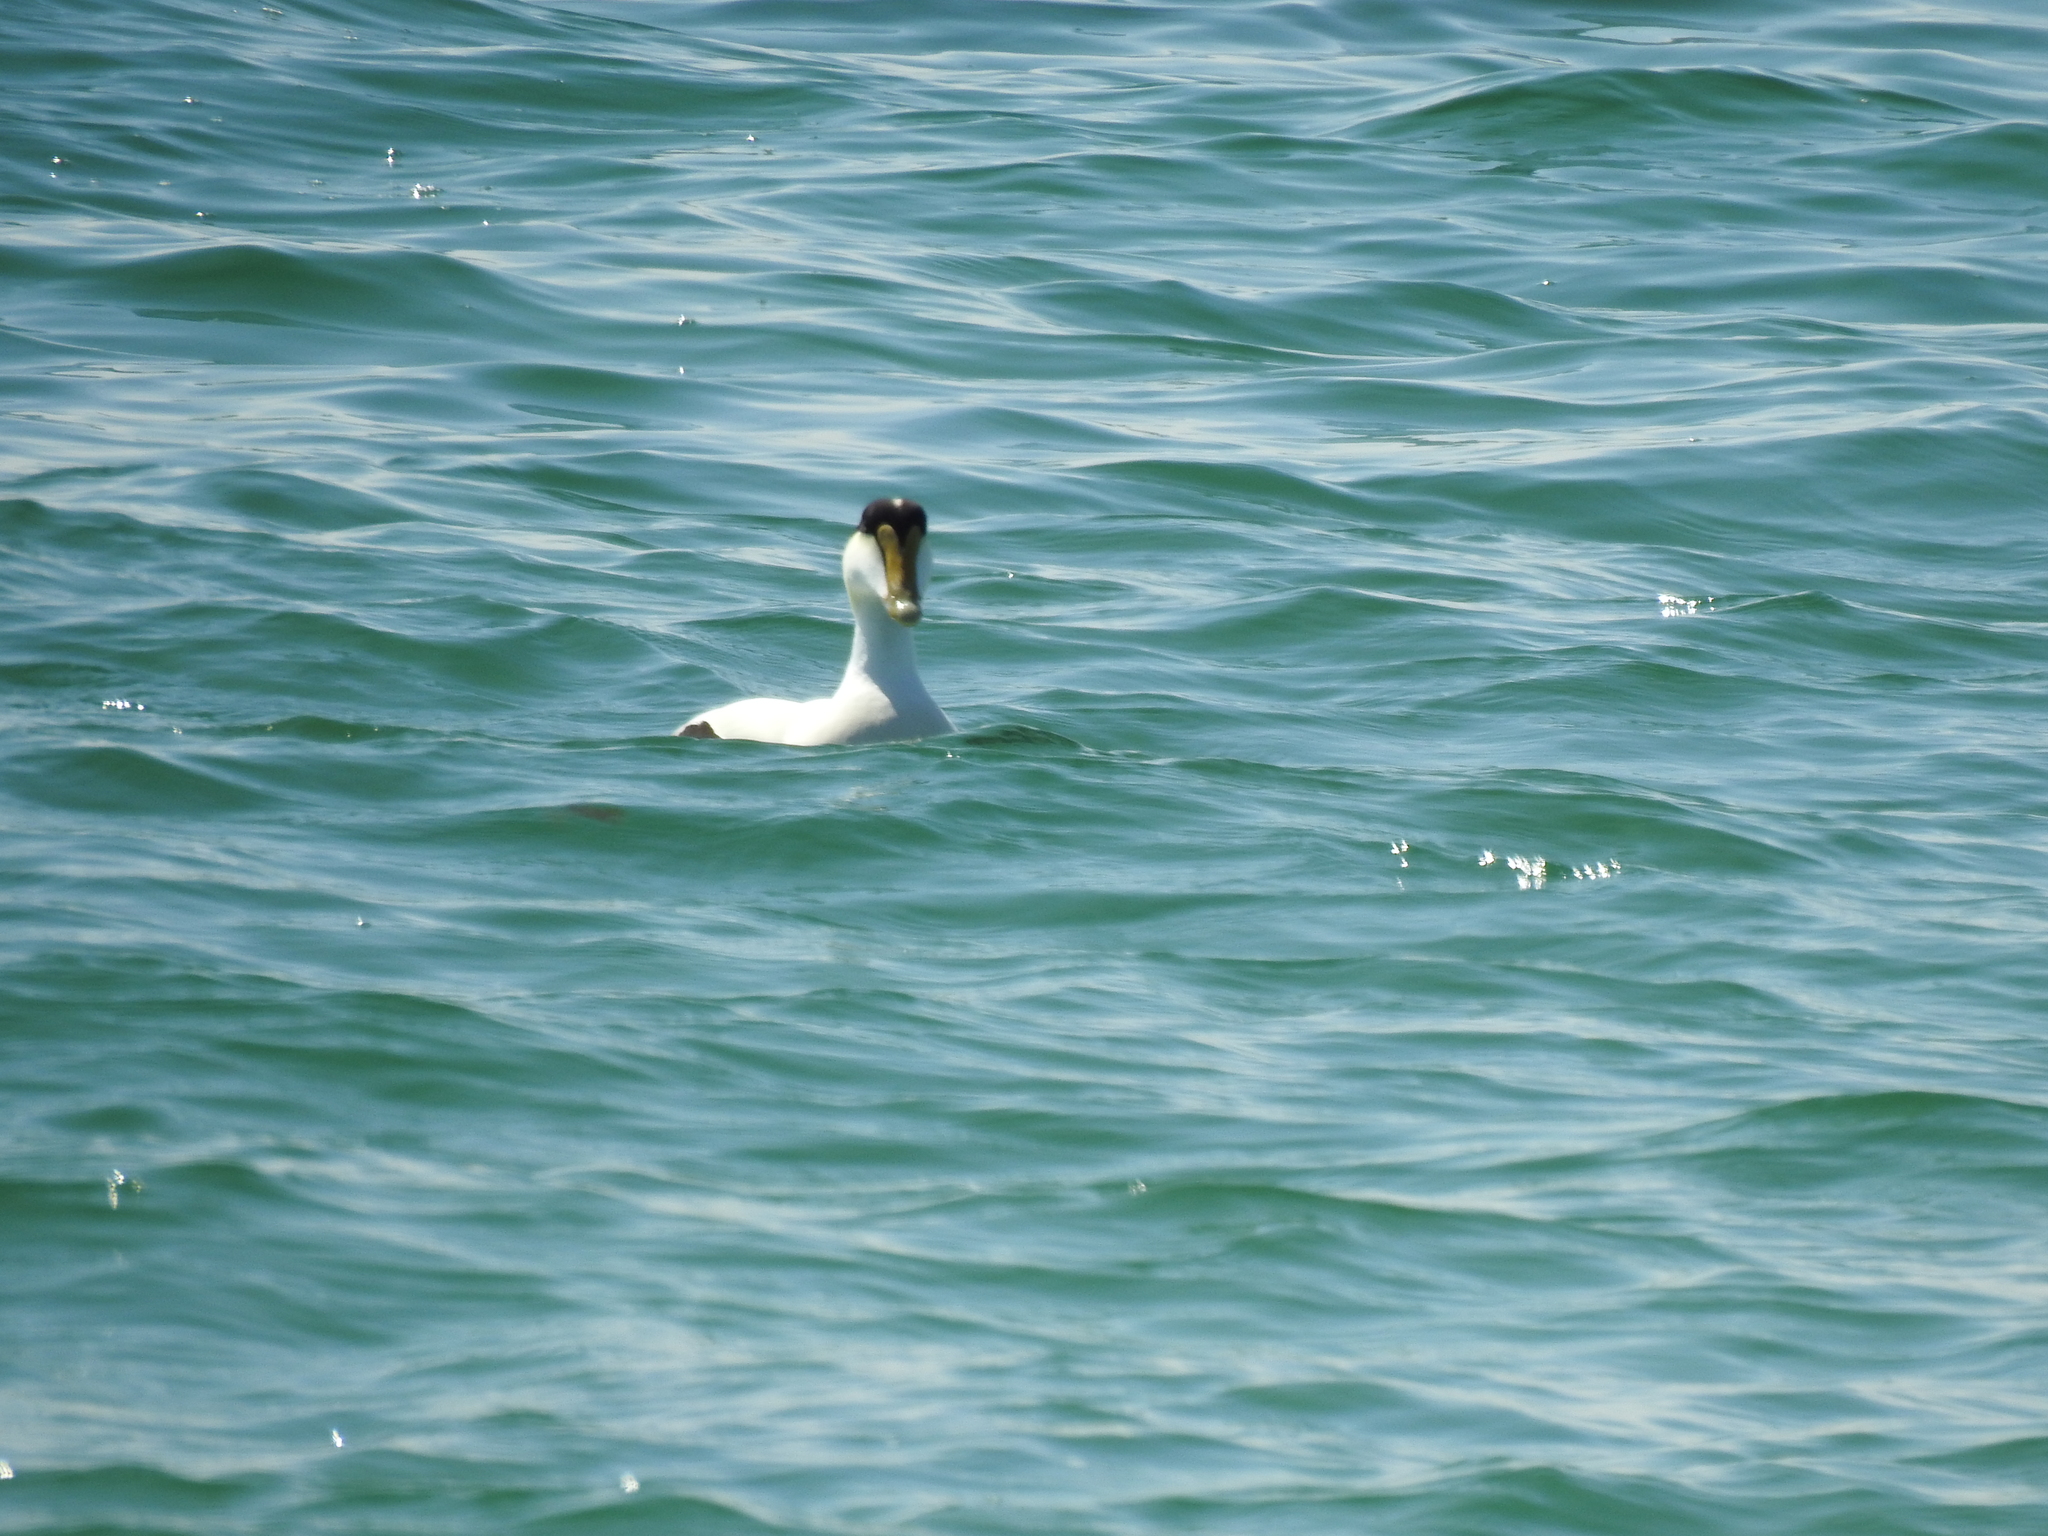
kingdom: Animalia
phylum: Chordata
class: Aves
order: Anseriformes
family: Anatidae
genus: Somateria
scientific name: Somateria mollissima
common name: Common eider
